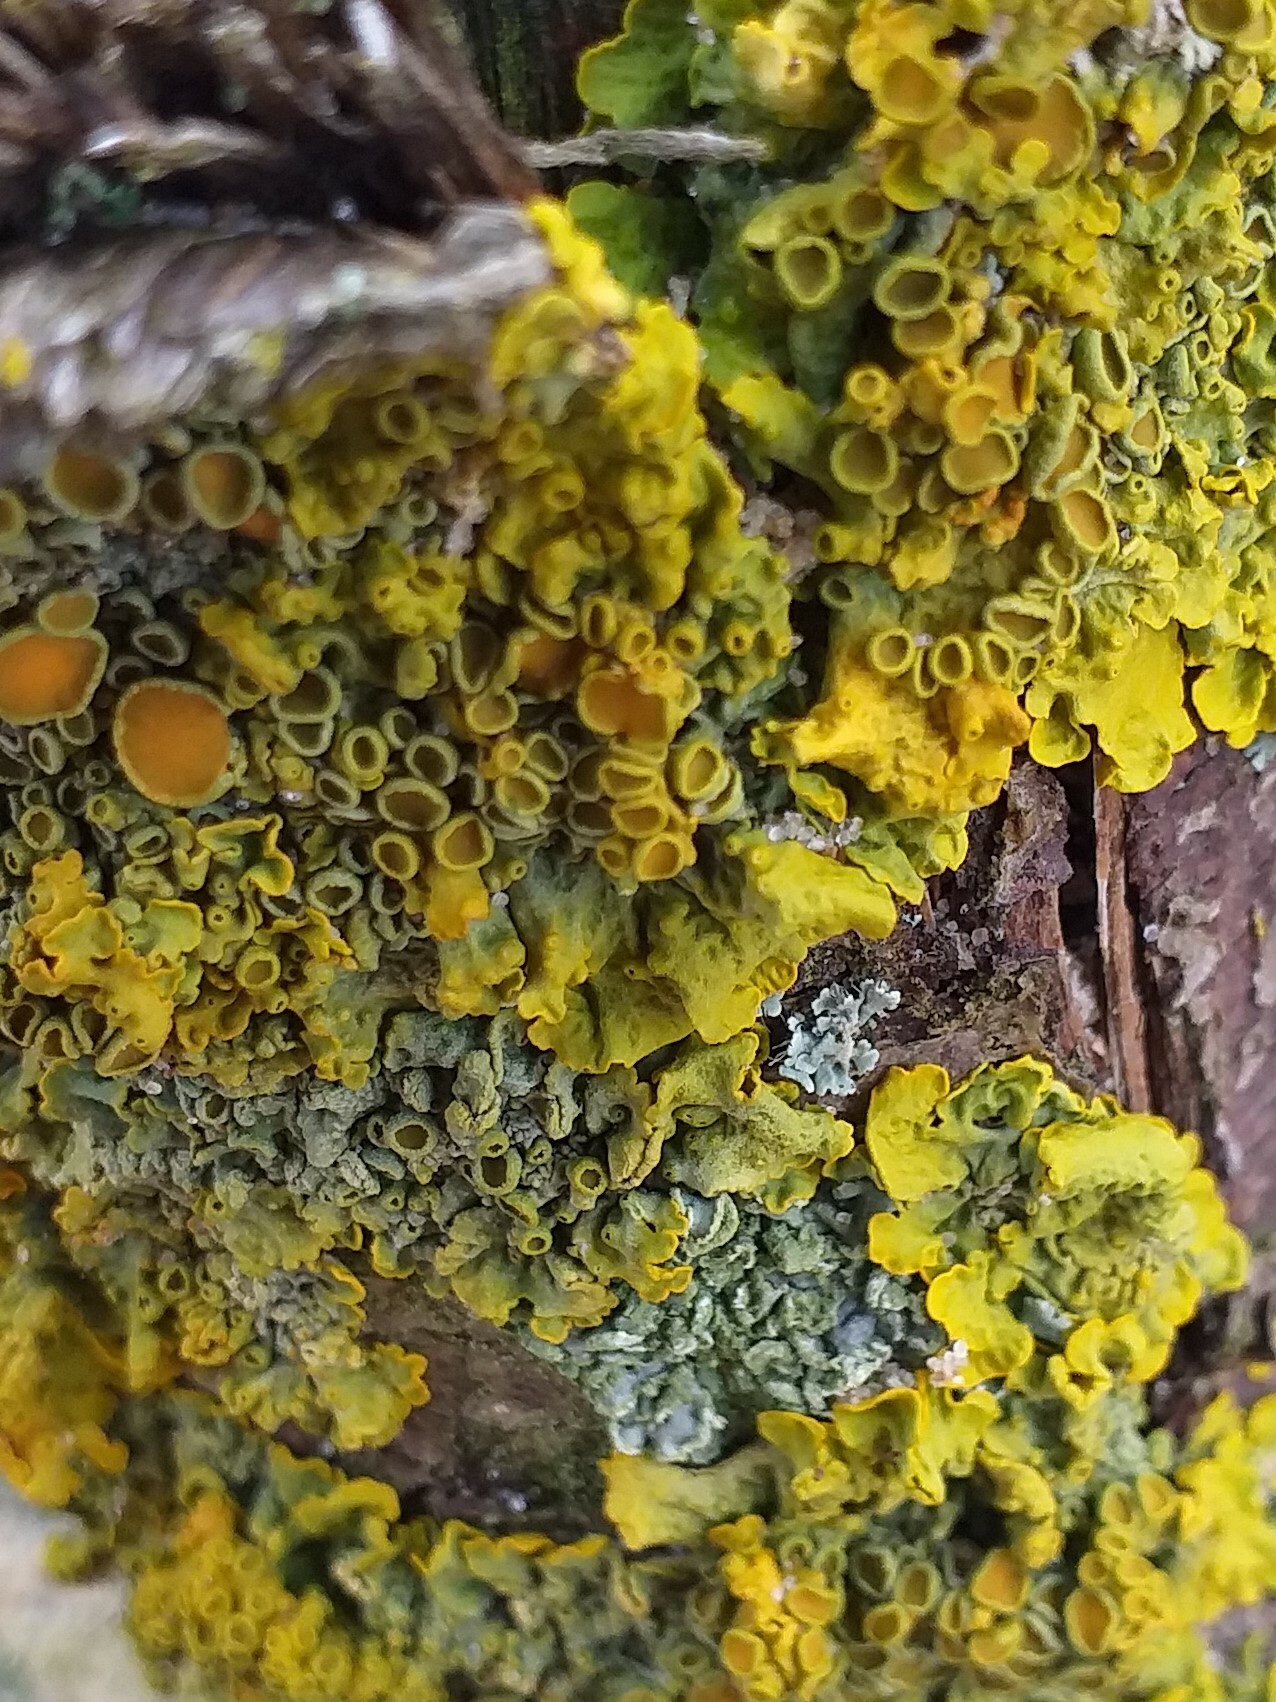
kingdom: Fungi
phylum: Ascomycota
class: Lecanoromycetes
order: Teloschistales
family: Teloschistaceae
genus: Xanthoria
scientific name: Xanthoria parietina
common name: Common orange lichen
